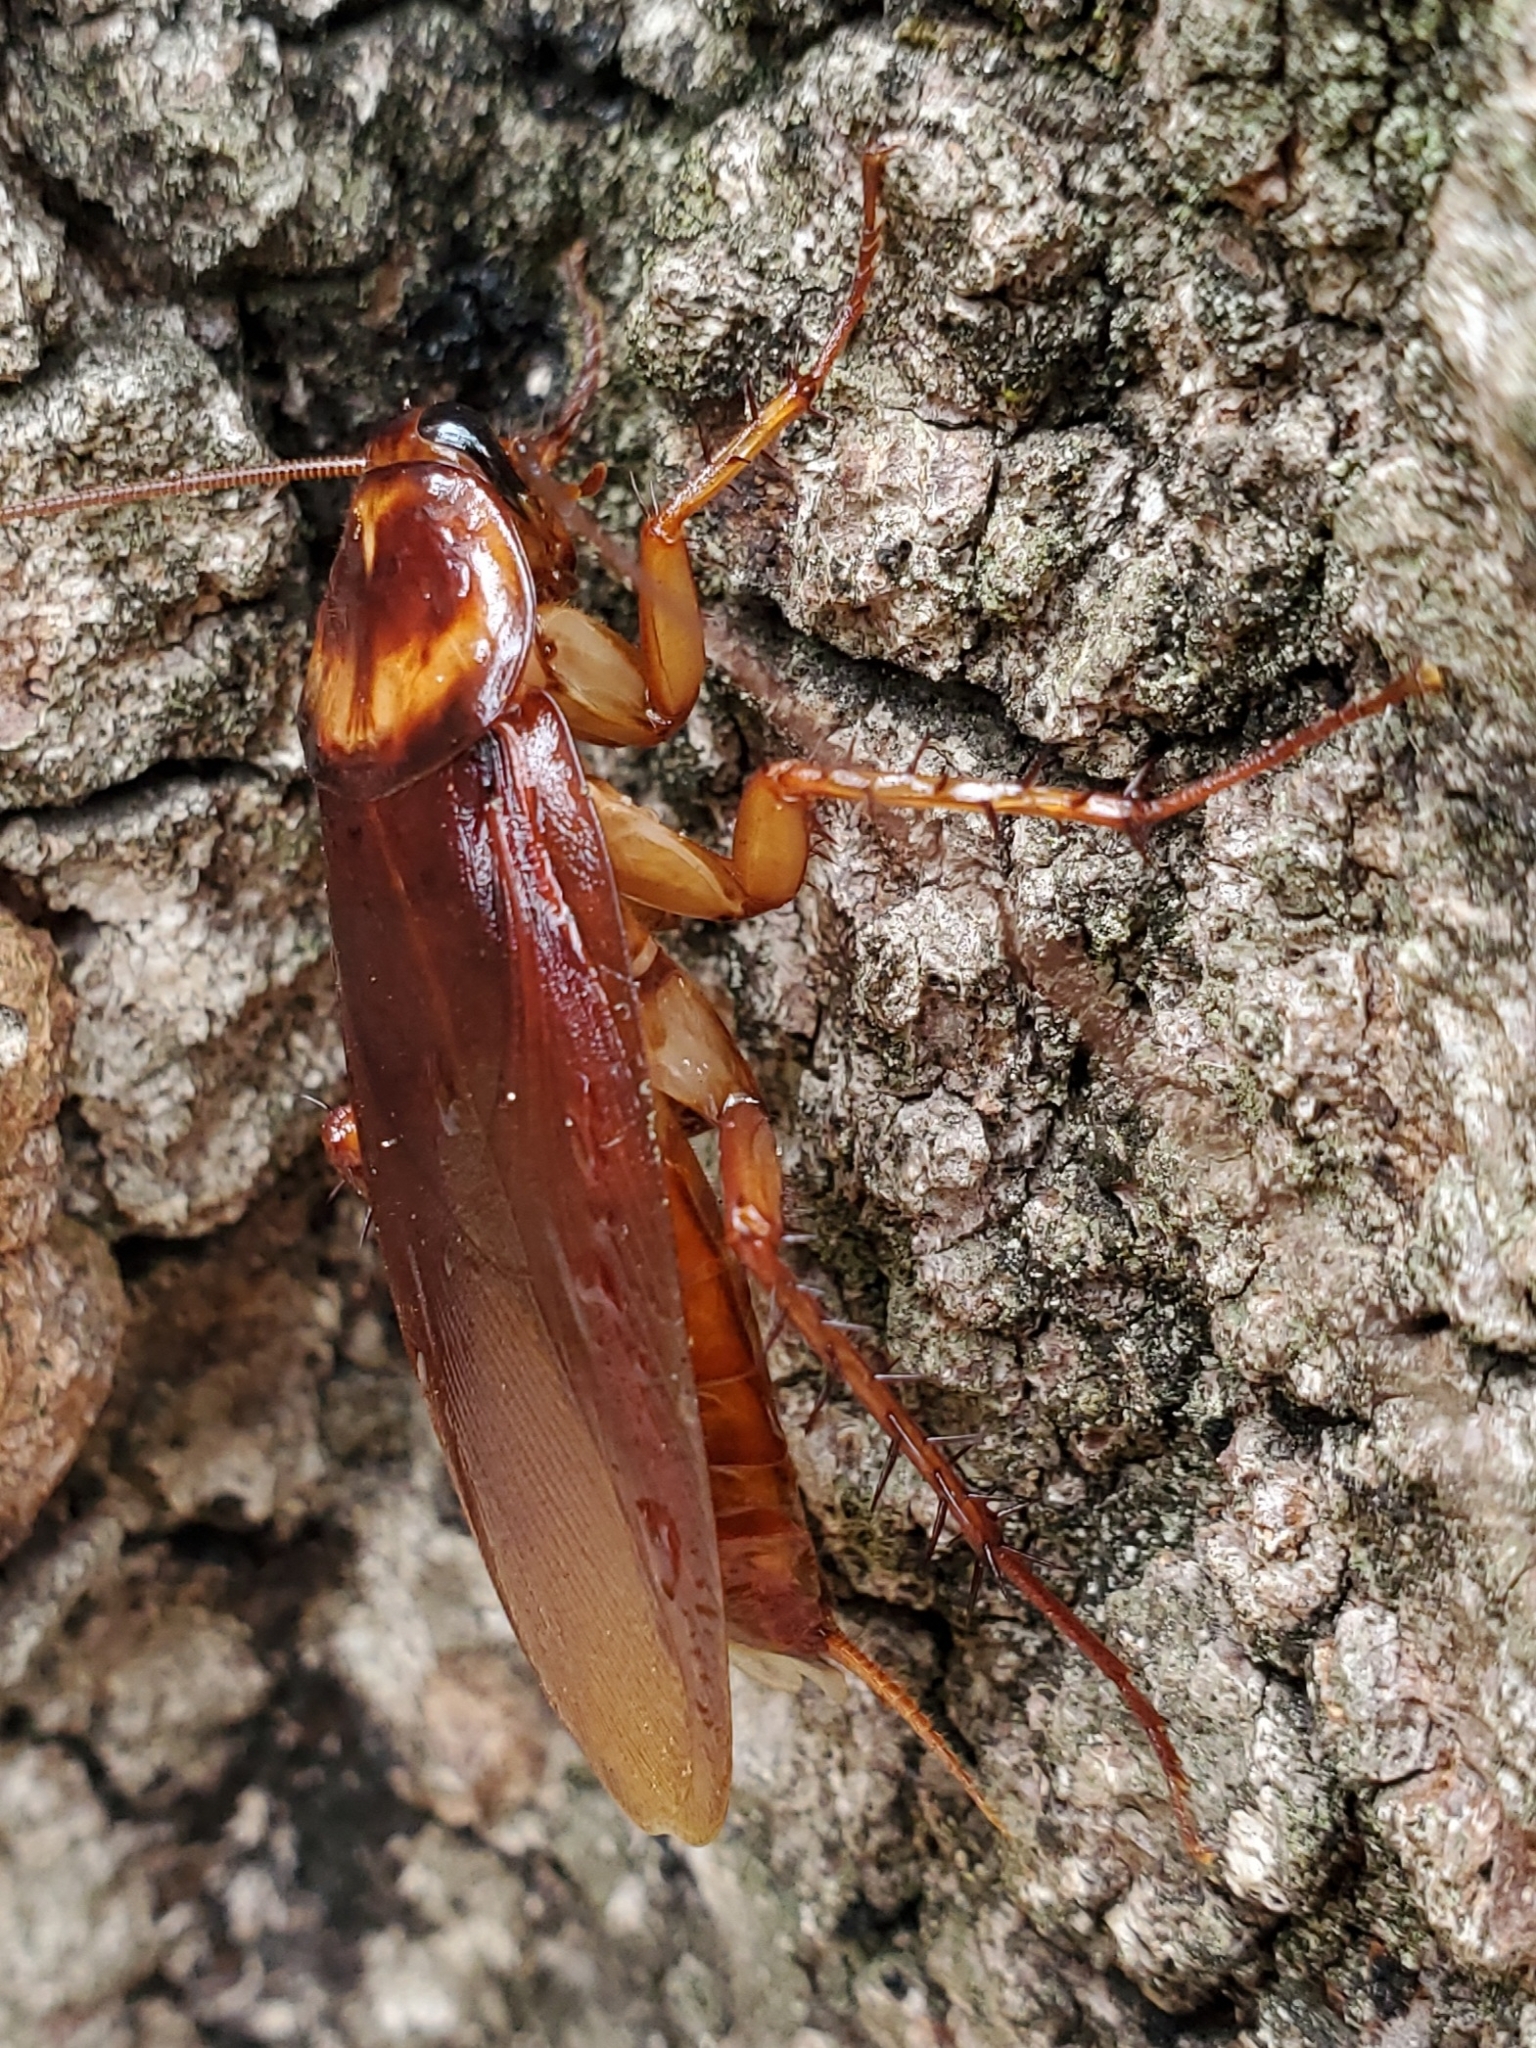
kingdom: Animalia
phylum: Arthropoda
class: Insecta
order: Blattodea
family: Blattidae
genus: Periplaneta
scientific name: Periplaneta americana
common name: American cockroach
